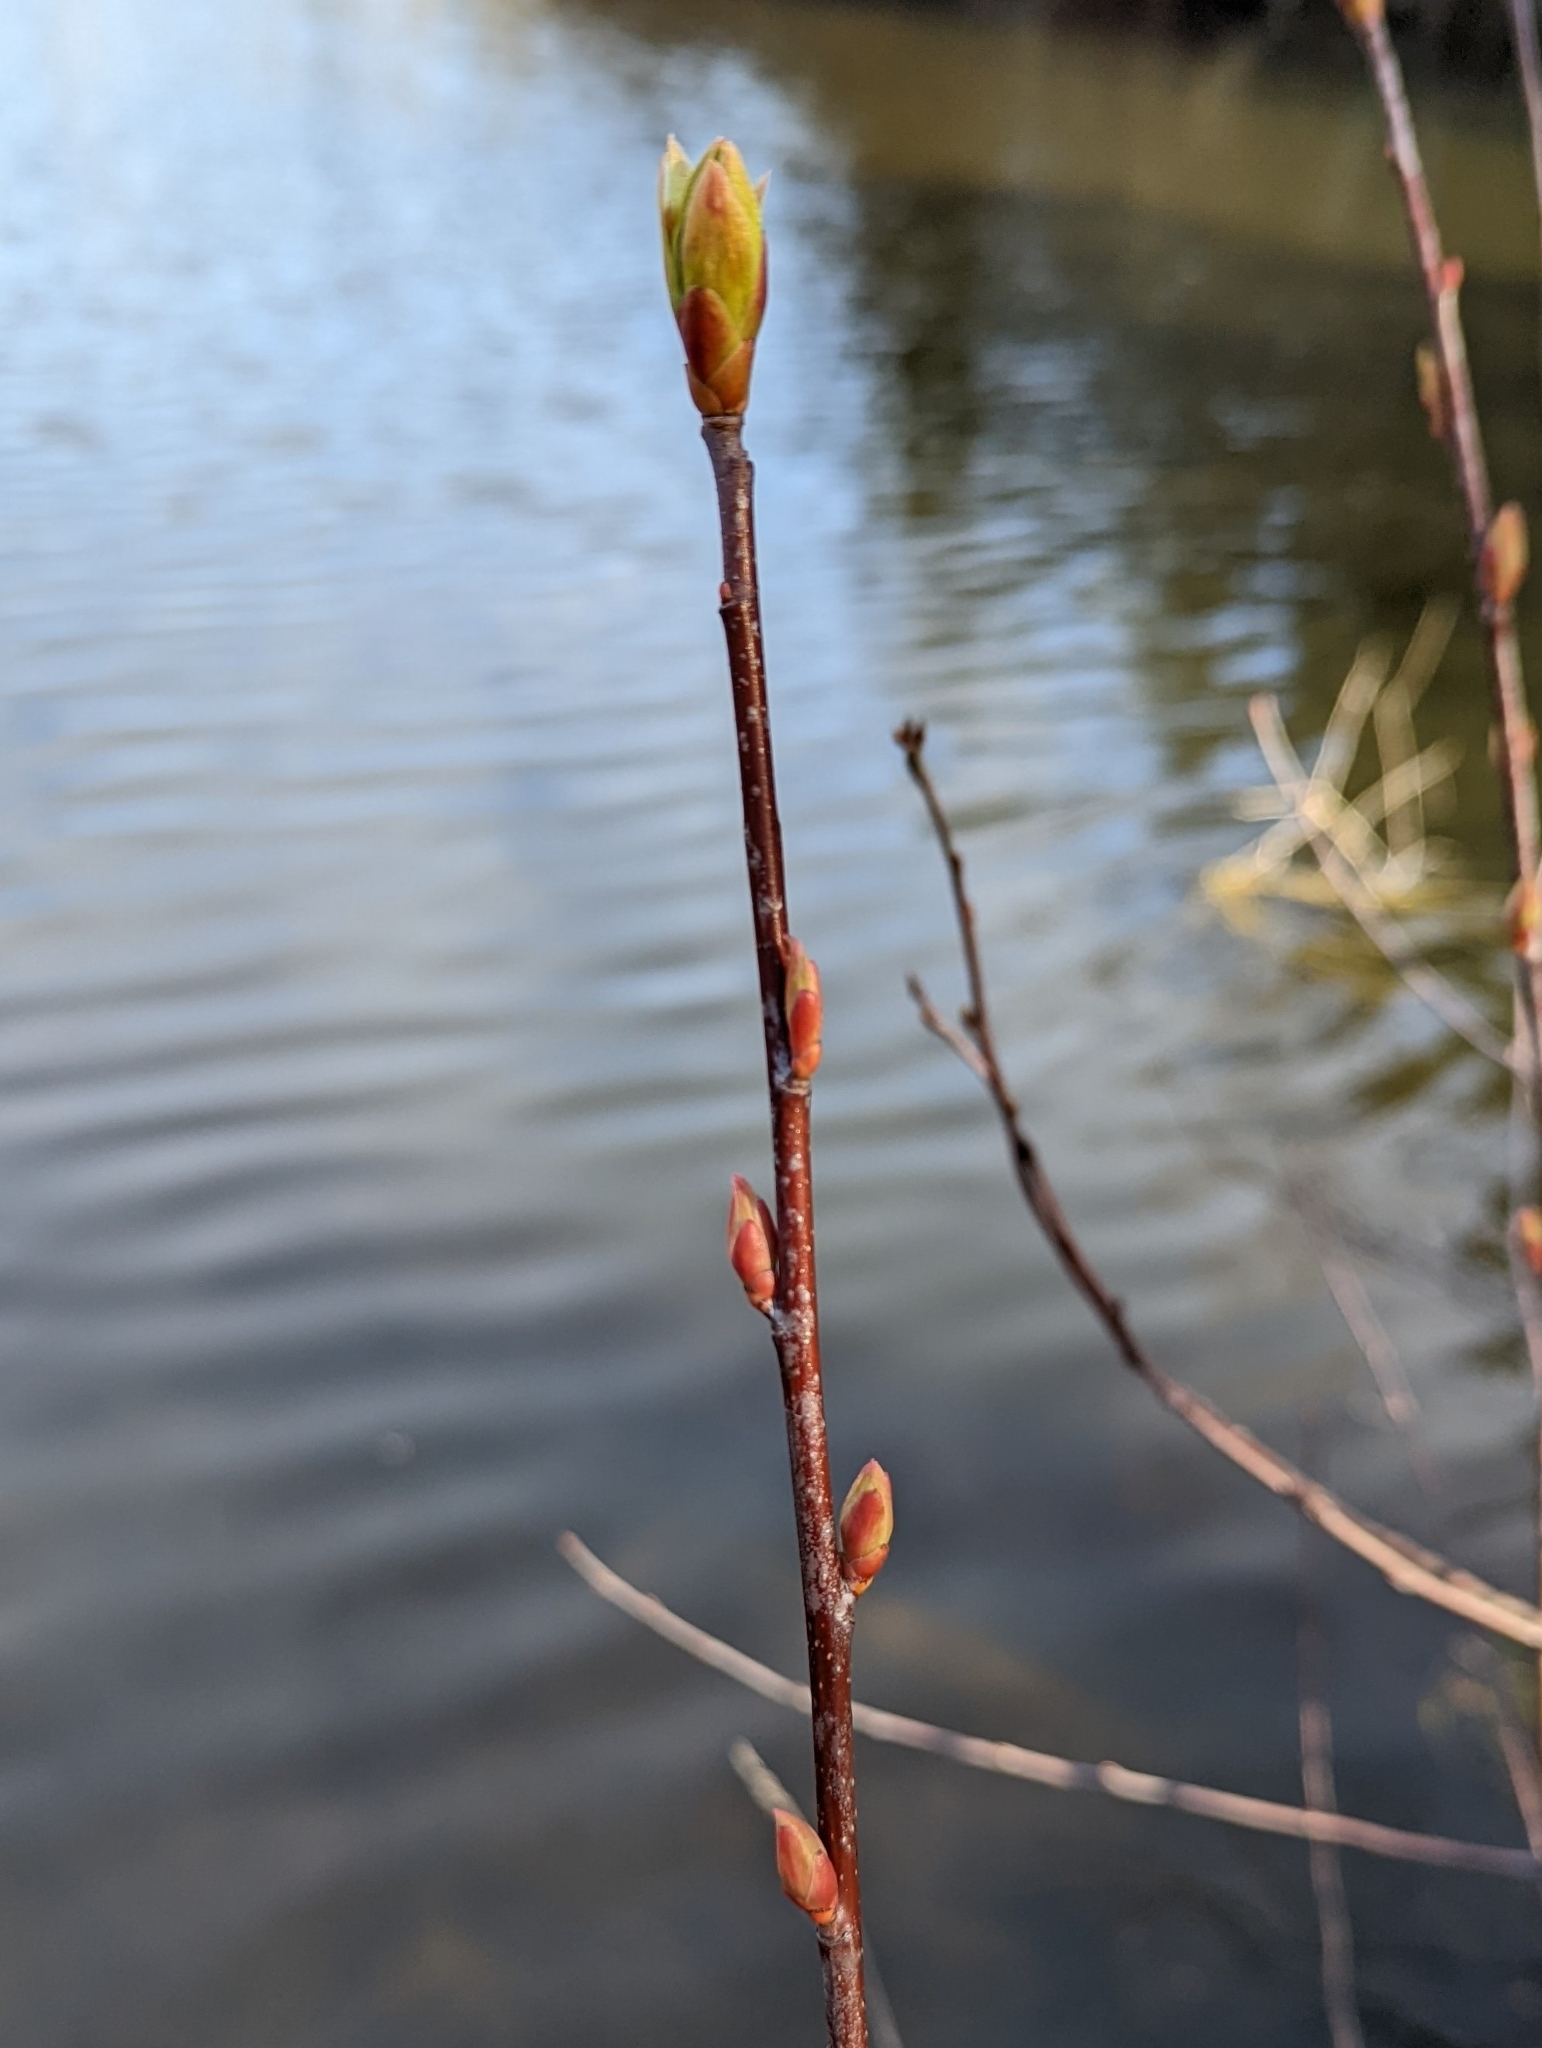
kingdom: Plantae
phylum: Tracheophyta
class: Magnoliopsida
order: Rosales
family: Rosaceae
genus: Oemleria
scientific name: Oemleria cerasiformis
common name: Osoberry
